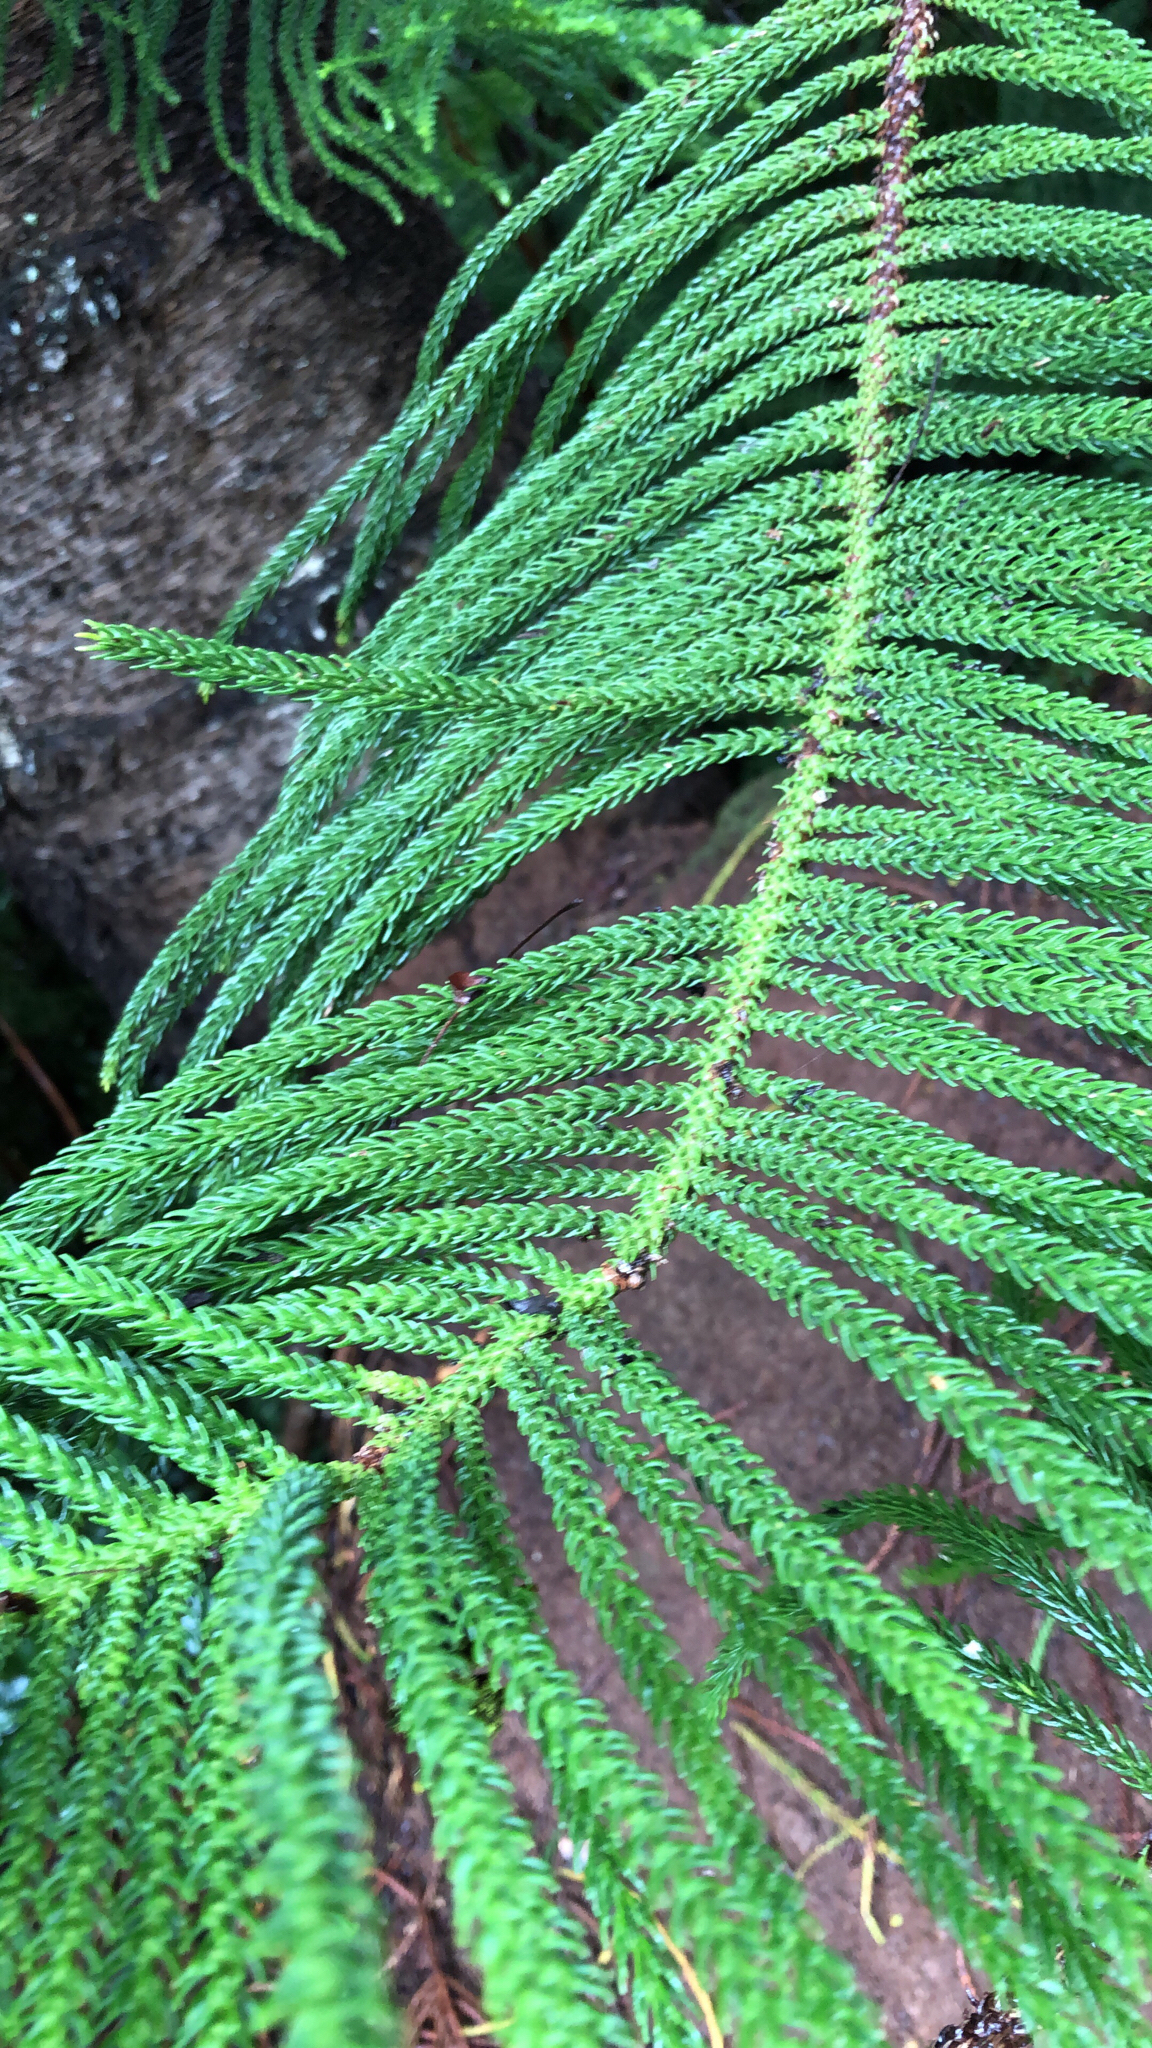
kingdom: Plantae
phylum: Tracheophyta
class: Pinopsida
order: Pinales
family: Araucariaceae
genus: Araucaria
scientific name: Araucaria heterophylla
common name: Norfolk island pine
